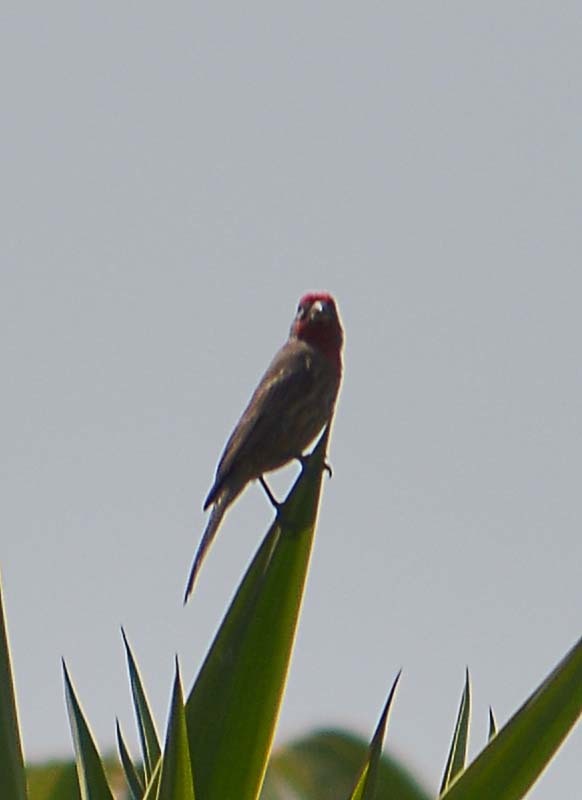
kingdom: Animalia
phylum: Chordata
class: Aves
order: Passeriformes
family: Fringillidae
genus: Haemorhous
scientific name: Haemorhous mexicanus
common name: House finch
